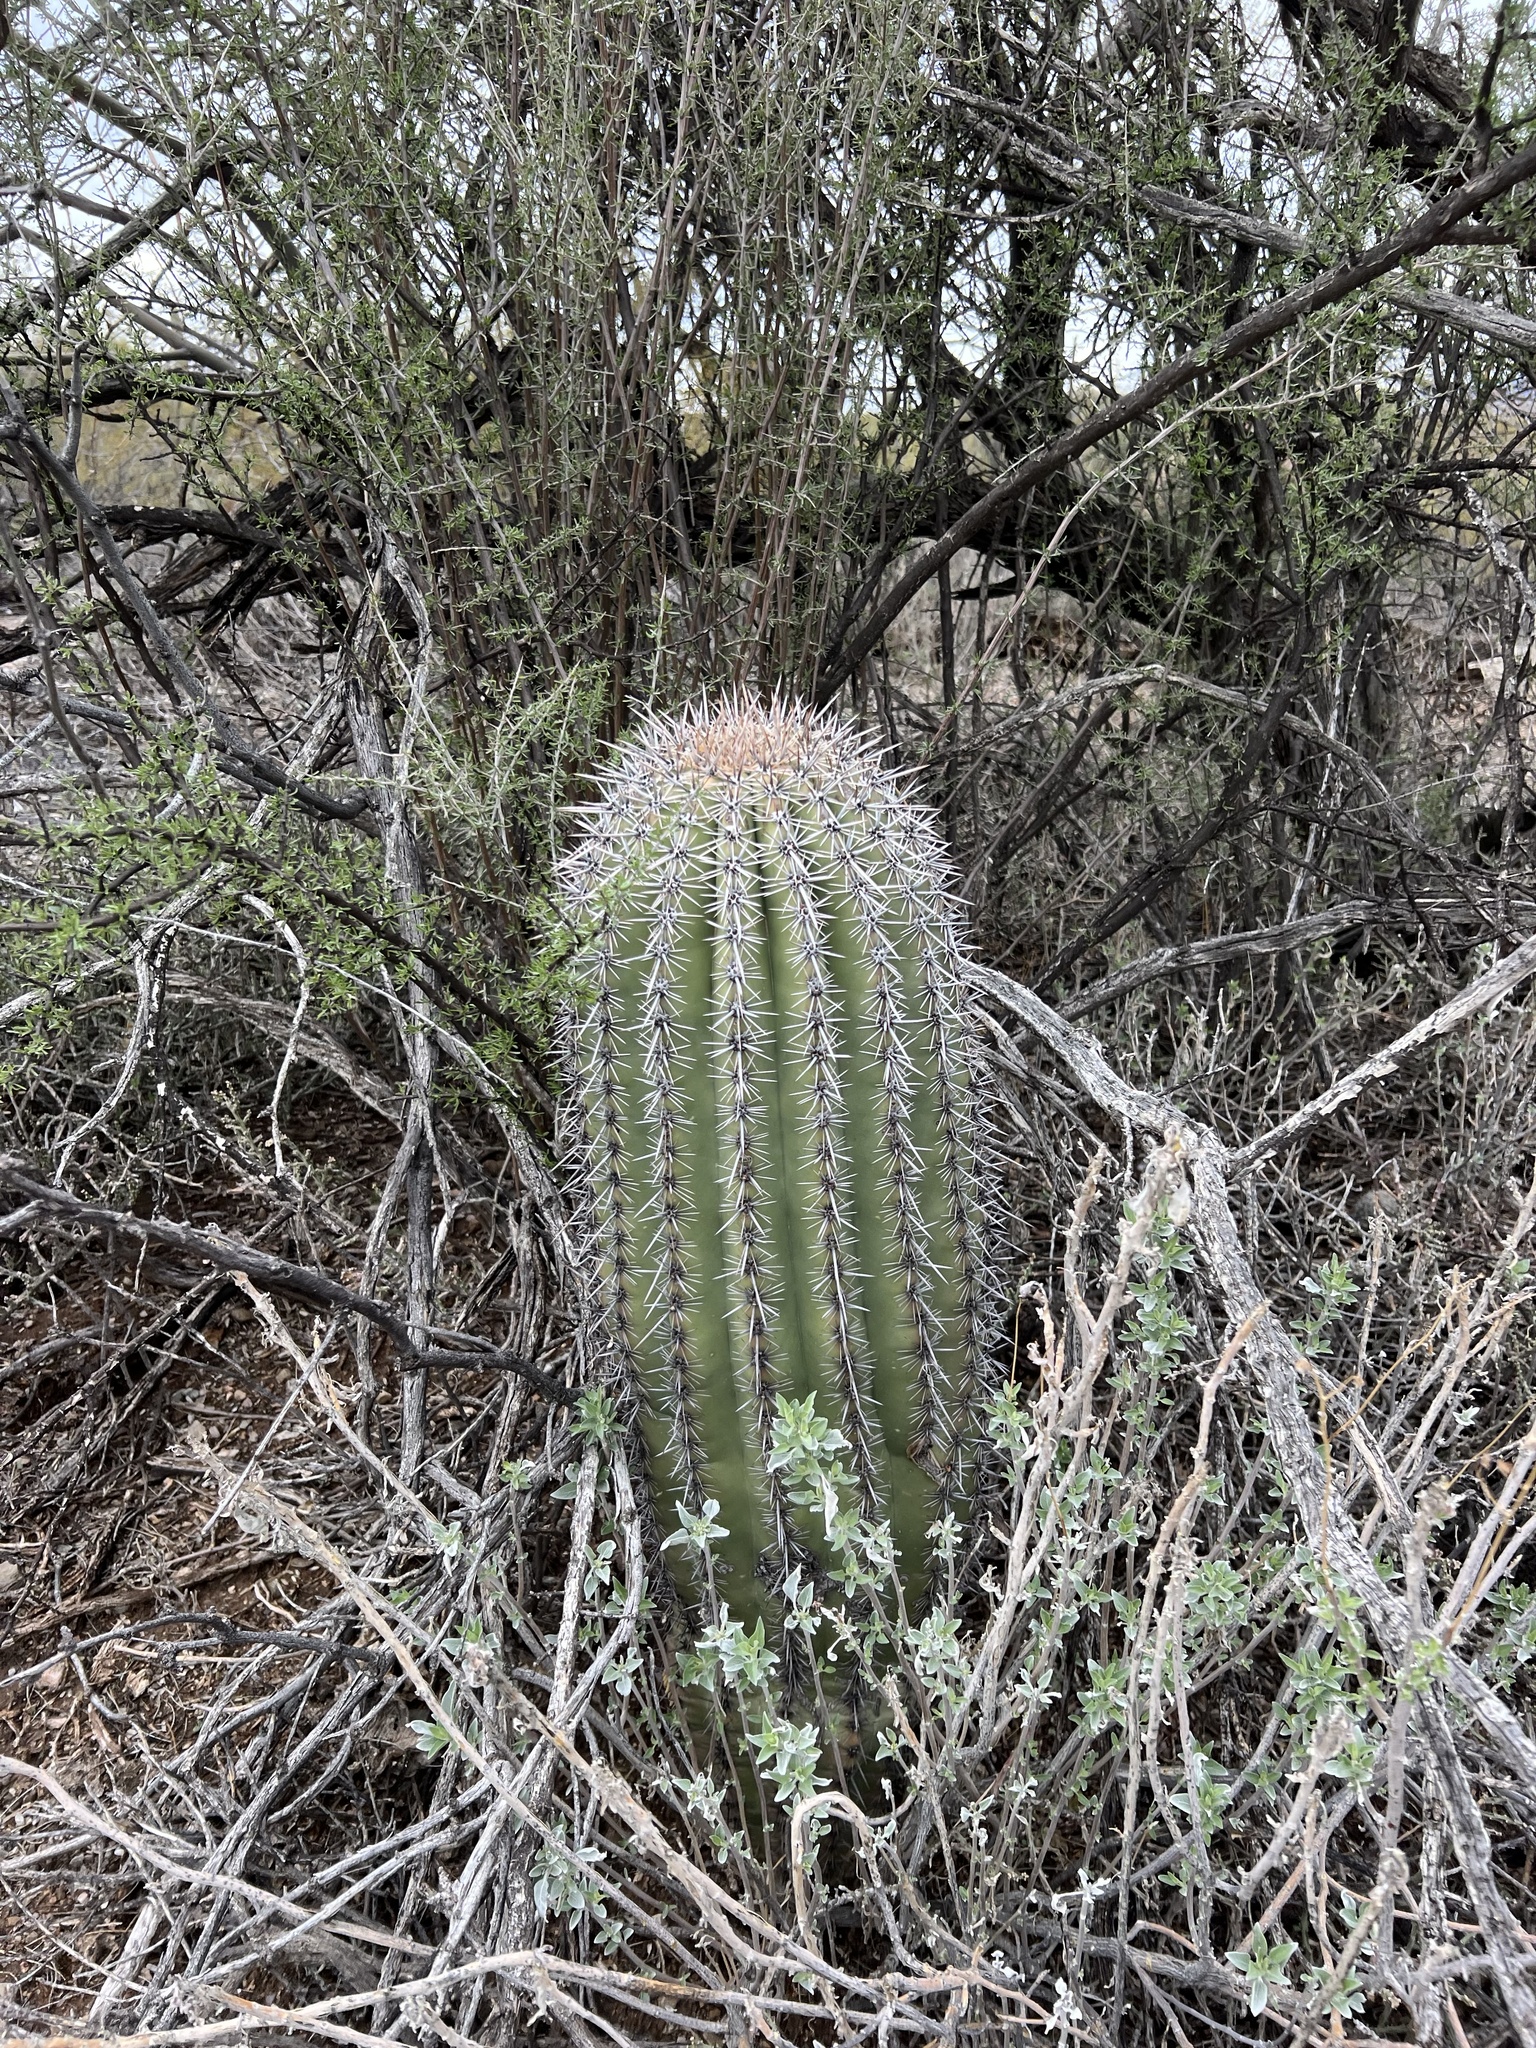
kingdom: Plantae
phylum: Tracheophyta
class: Magnoliopsida
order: Caryophyllales
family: Cactaceae
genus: Carnegiea
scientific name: Carnegiea gigantea
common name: Saguaro
